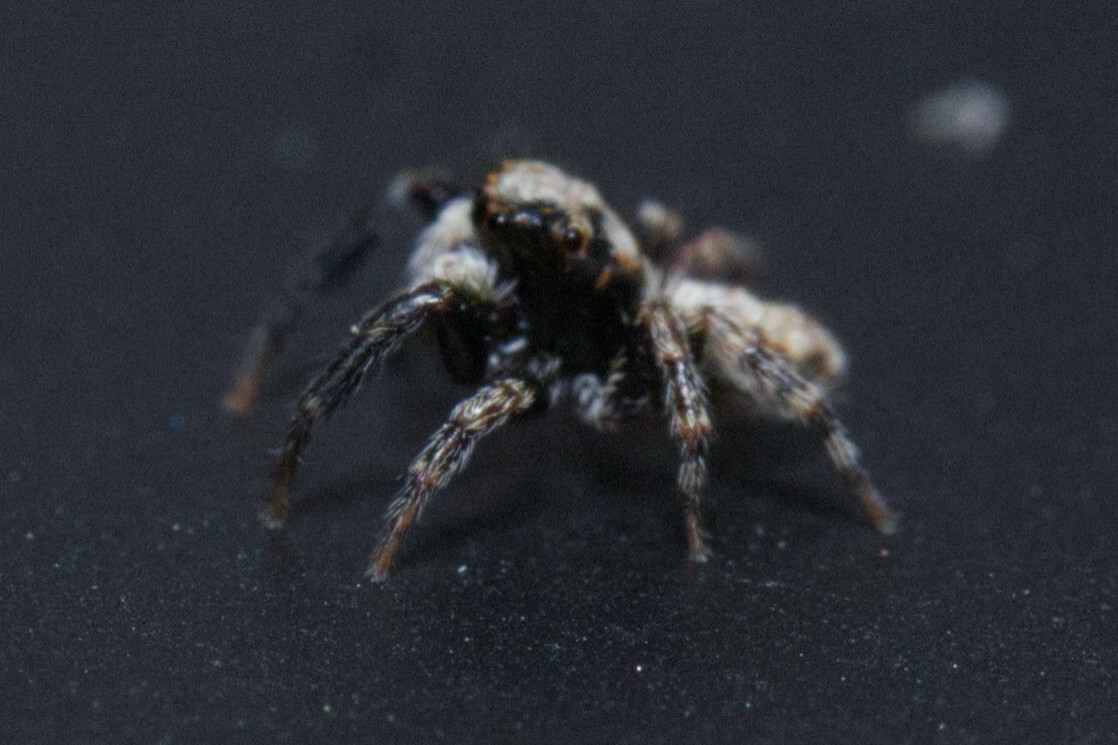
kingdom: Animalia
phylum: Arthropoda
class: Arachnida
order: Araneae
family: Salticidae
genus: Pseudeuophrys
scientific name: Pseudeuophrys lanigera
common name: Jumping spider
